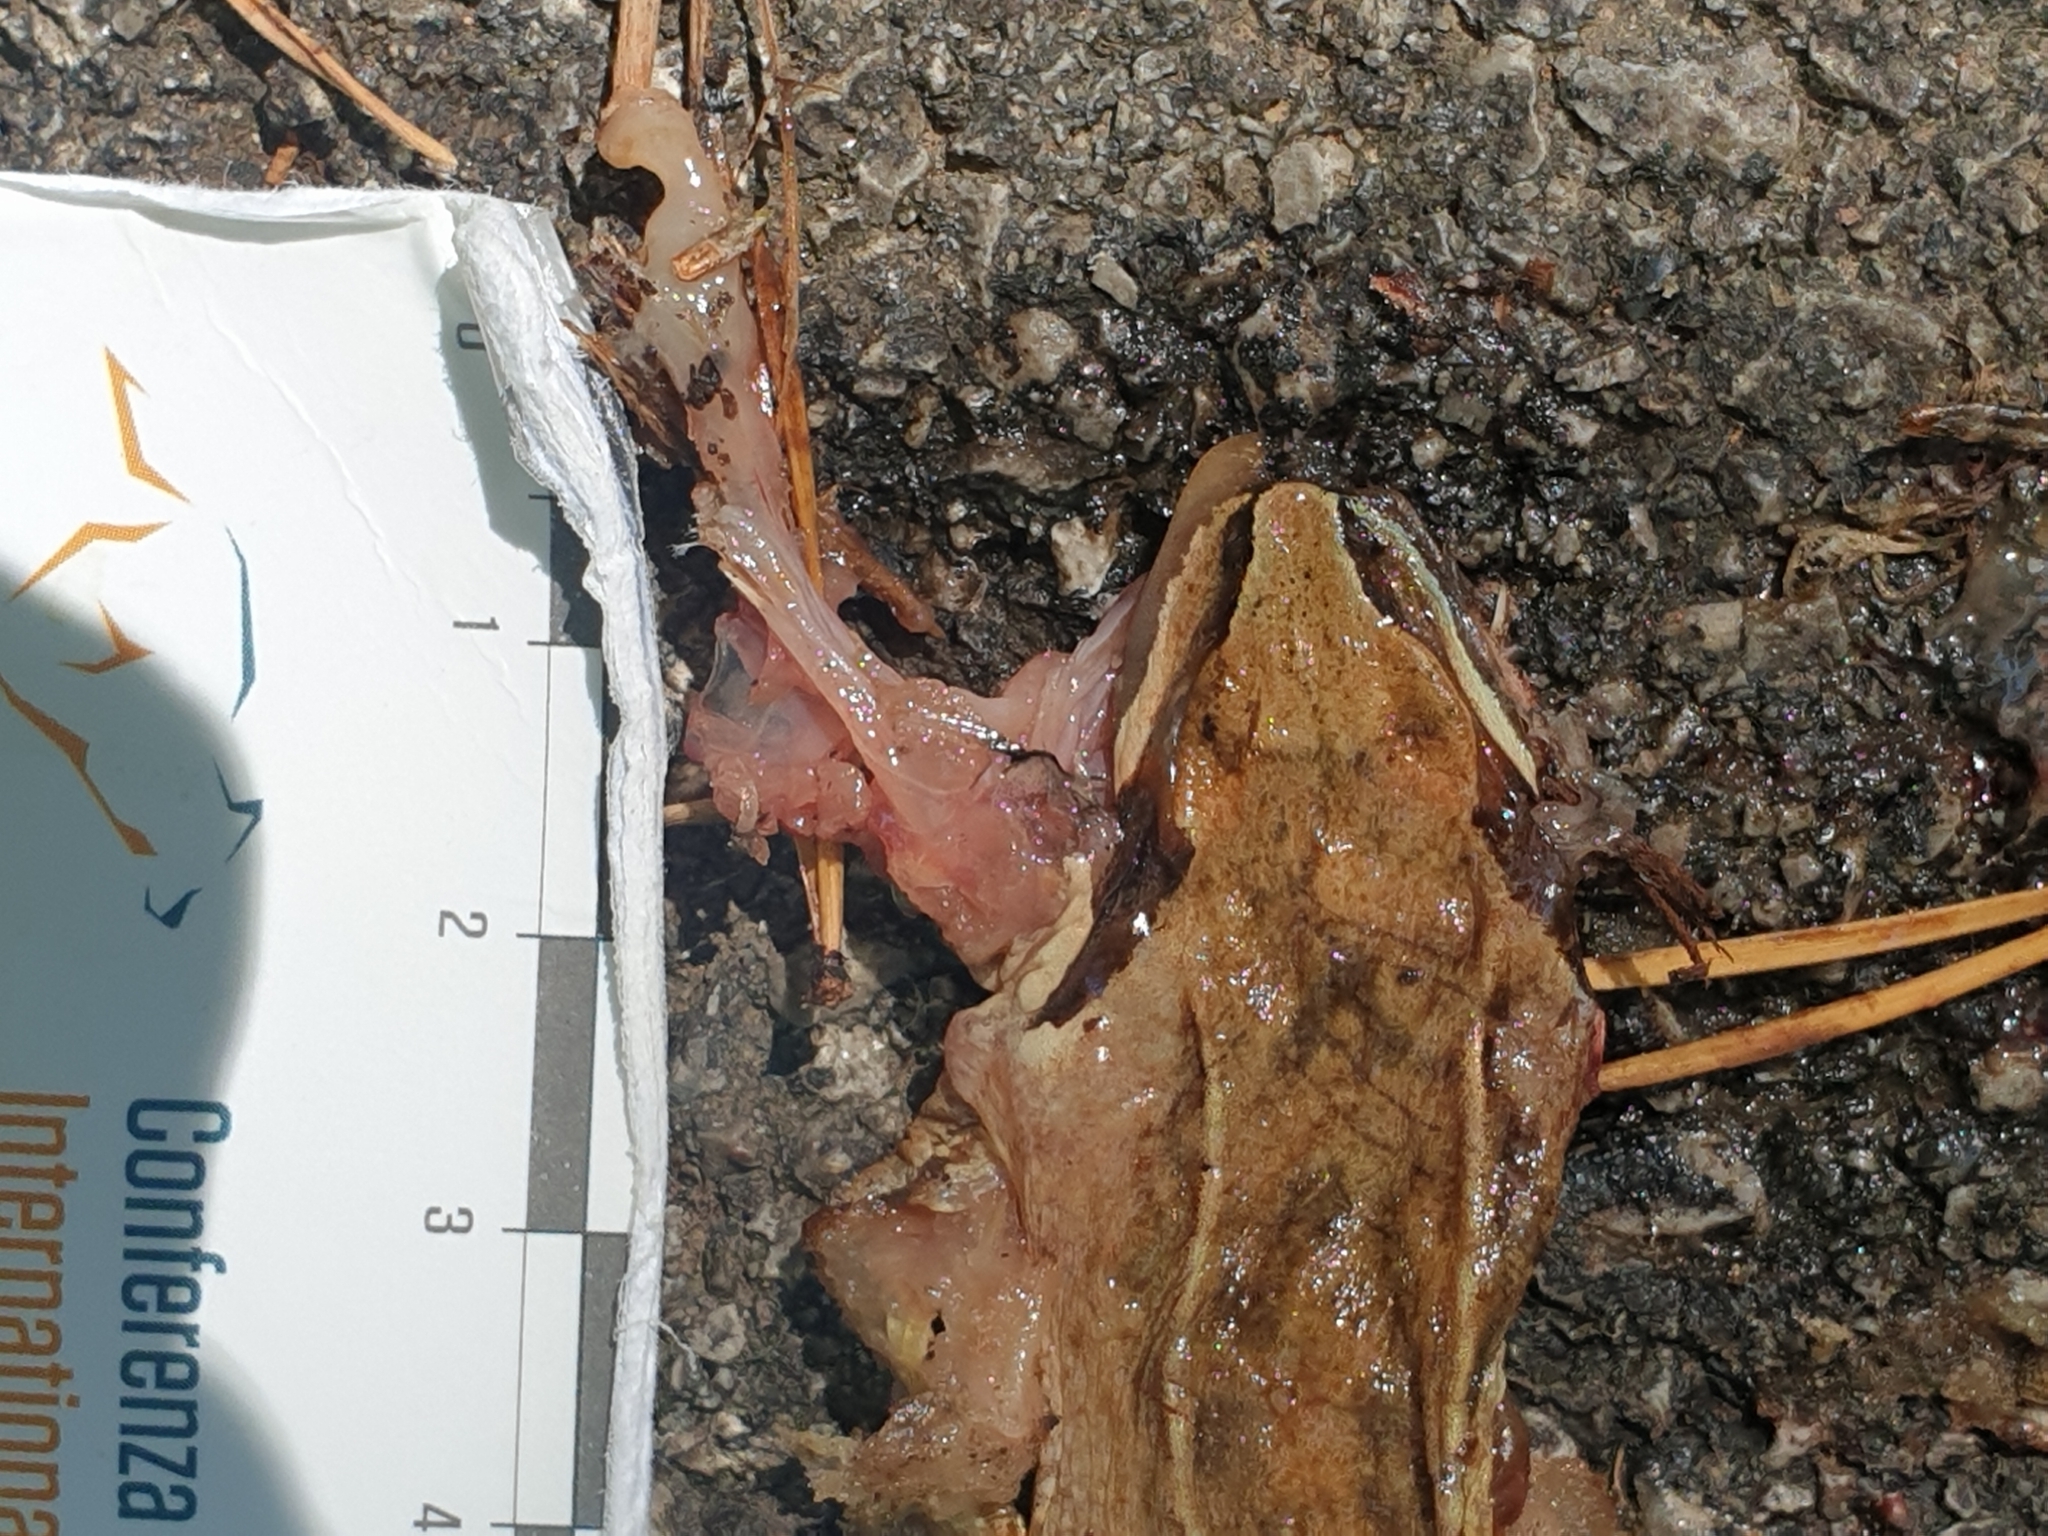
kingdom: Animalia
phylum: Chordata
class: Amphibia
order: Anura
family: Ranidae
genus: Rana
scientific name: Rana dalmatina
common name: Agile frog
